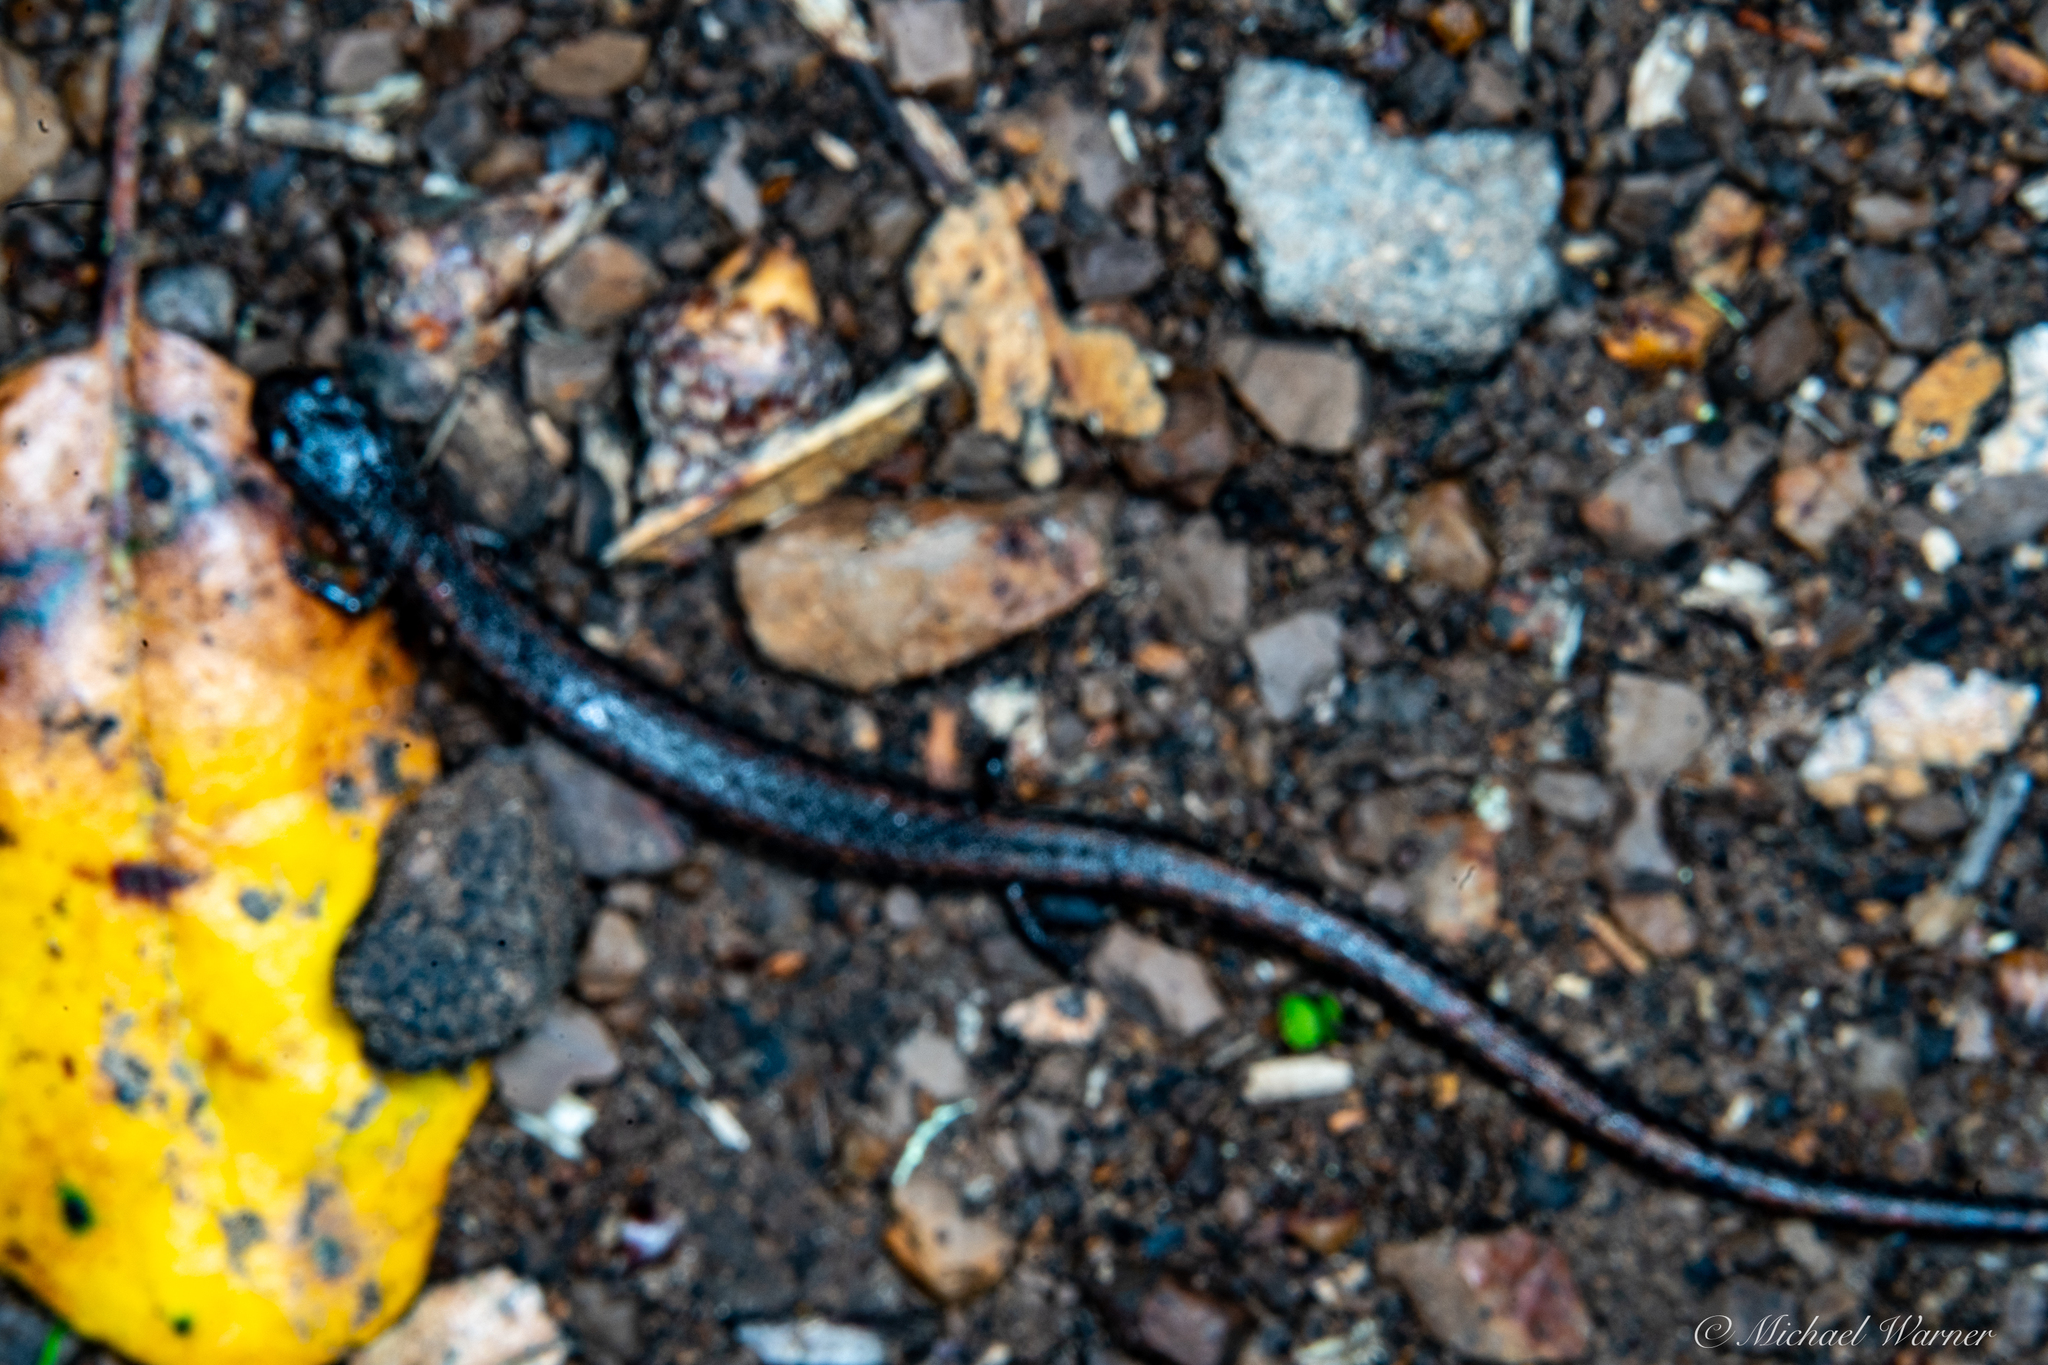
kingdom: Animalia
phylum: Chordata
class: Amphibia
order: Caudata
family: Plethodontidae
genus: Batrachoseps
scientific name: Batrachoseps attenuatus
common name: California slender salamander
